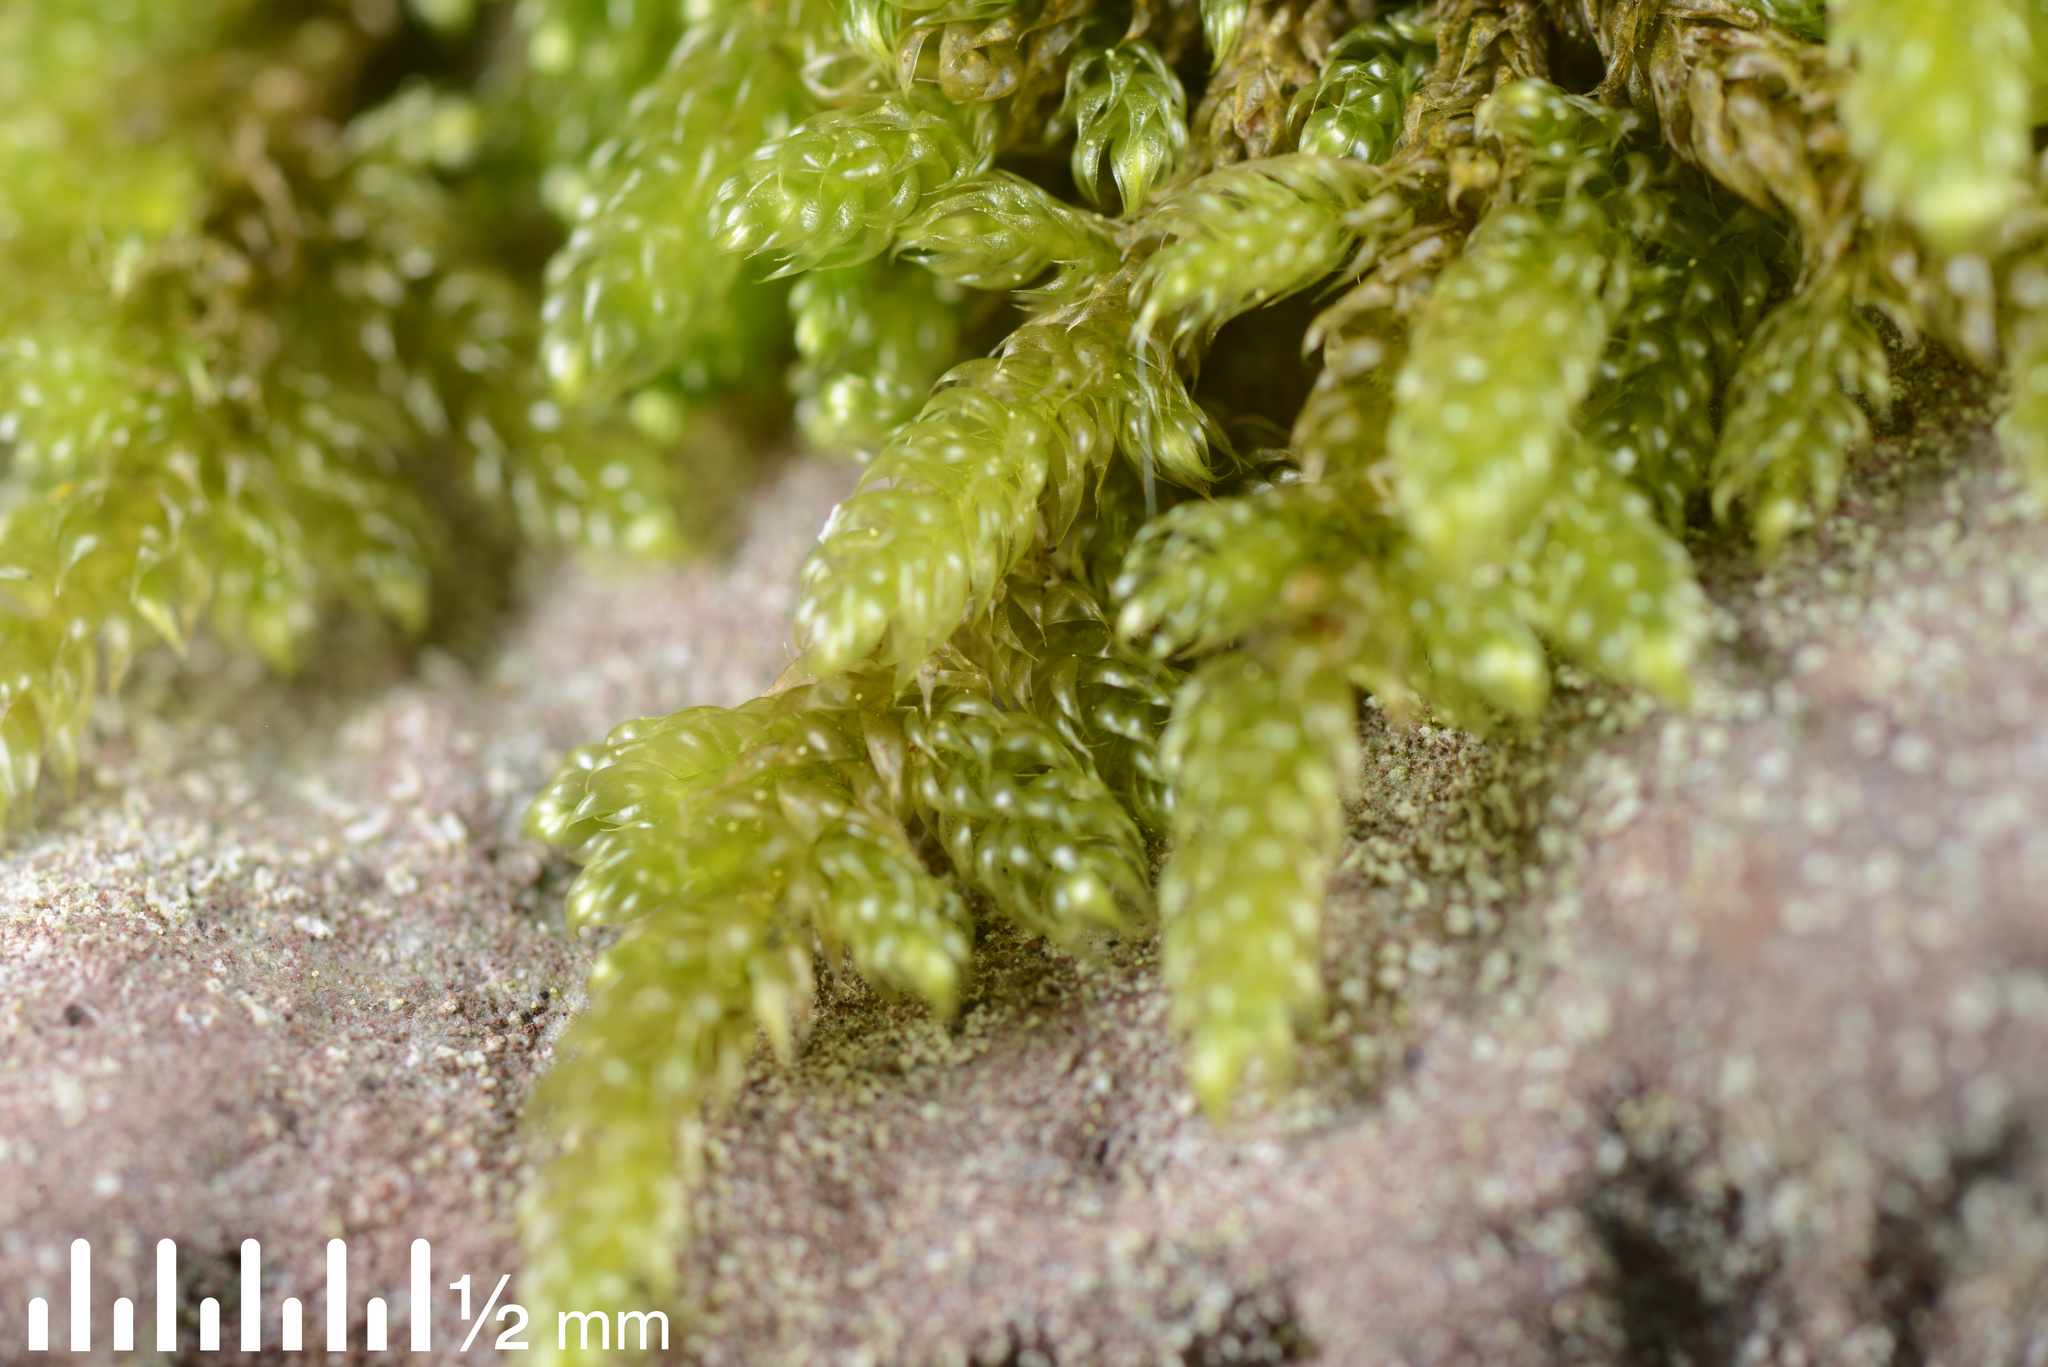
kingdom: Plantae
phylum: Bryophyta
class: Bryopsida
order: Hypnales
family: Hypnaceae
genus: Hypnum
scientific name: Hypnum cupressiforme
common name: Cypress-leaved plait-moss
